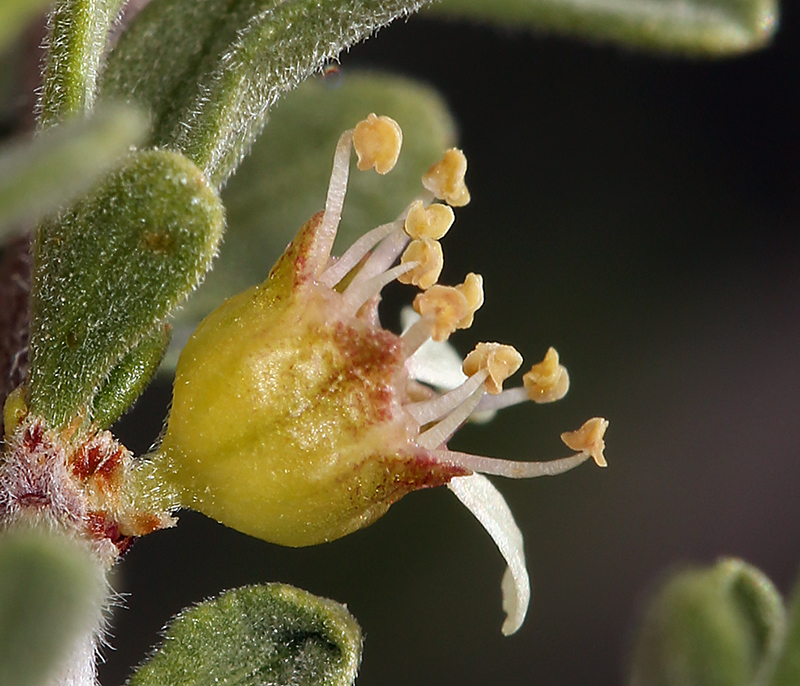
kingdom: Plantae
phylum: Tracheophyta
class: Magnoliopsida
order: Rosales
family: Rosaceae
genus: Prunus
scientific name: Prunus fasciculata
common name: Desert almond
